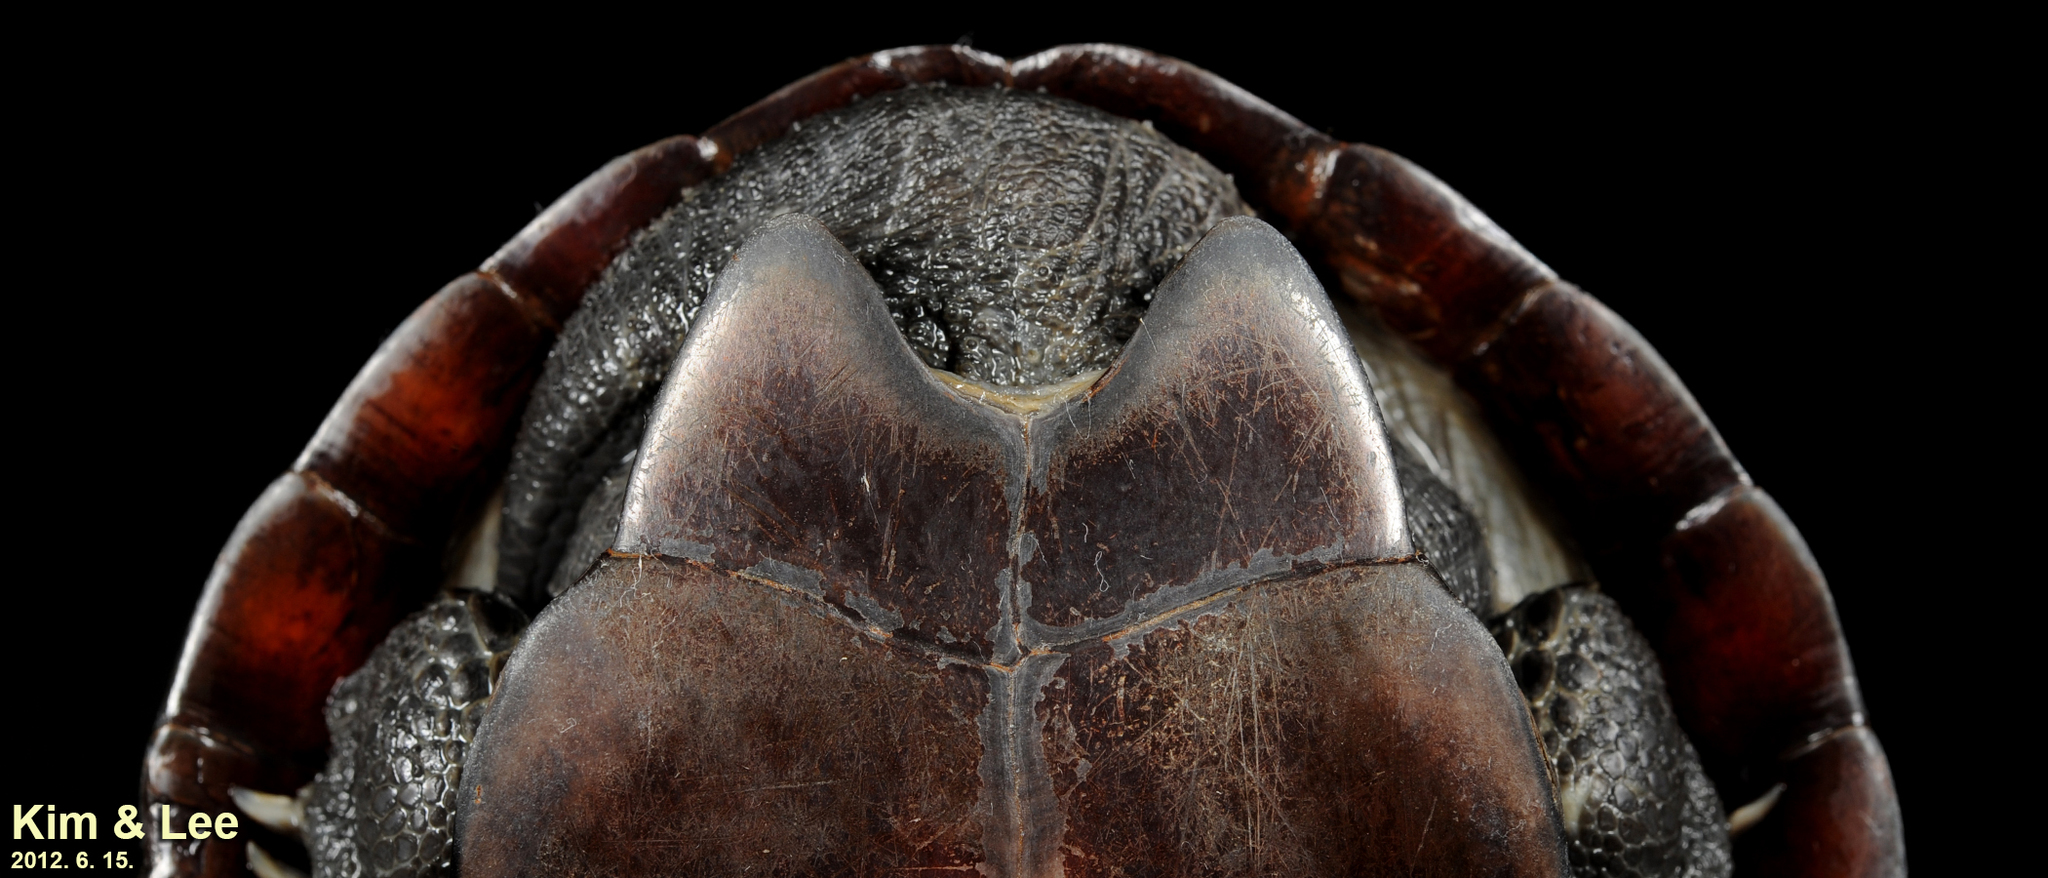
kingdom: Animalia
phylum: Chordata
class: Testudines
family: Geoemydidae
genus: Mauremys
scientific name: Mauremys reevesii
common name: Chinese pond turtle
